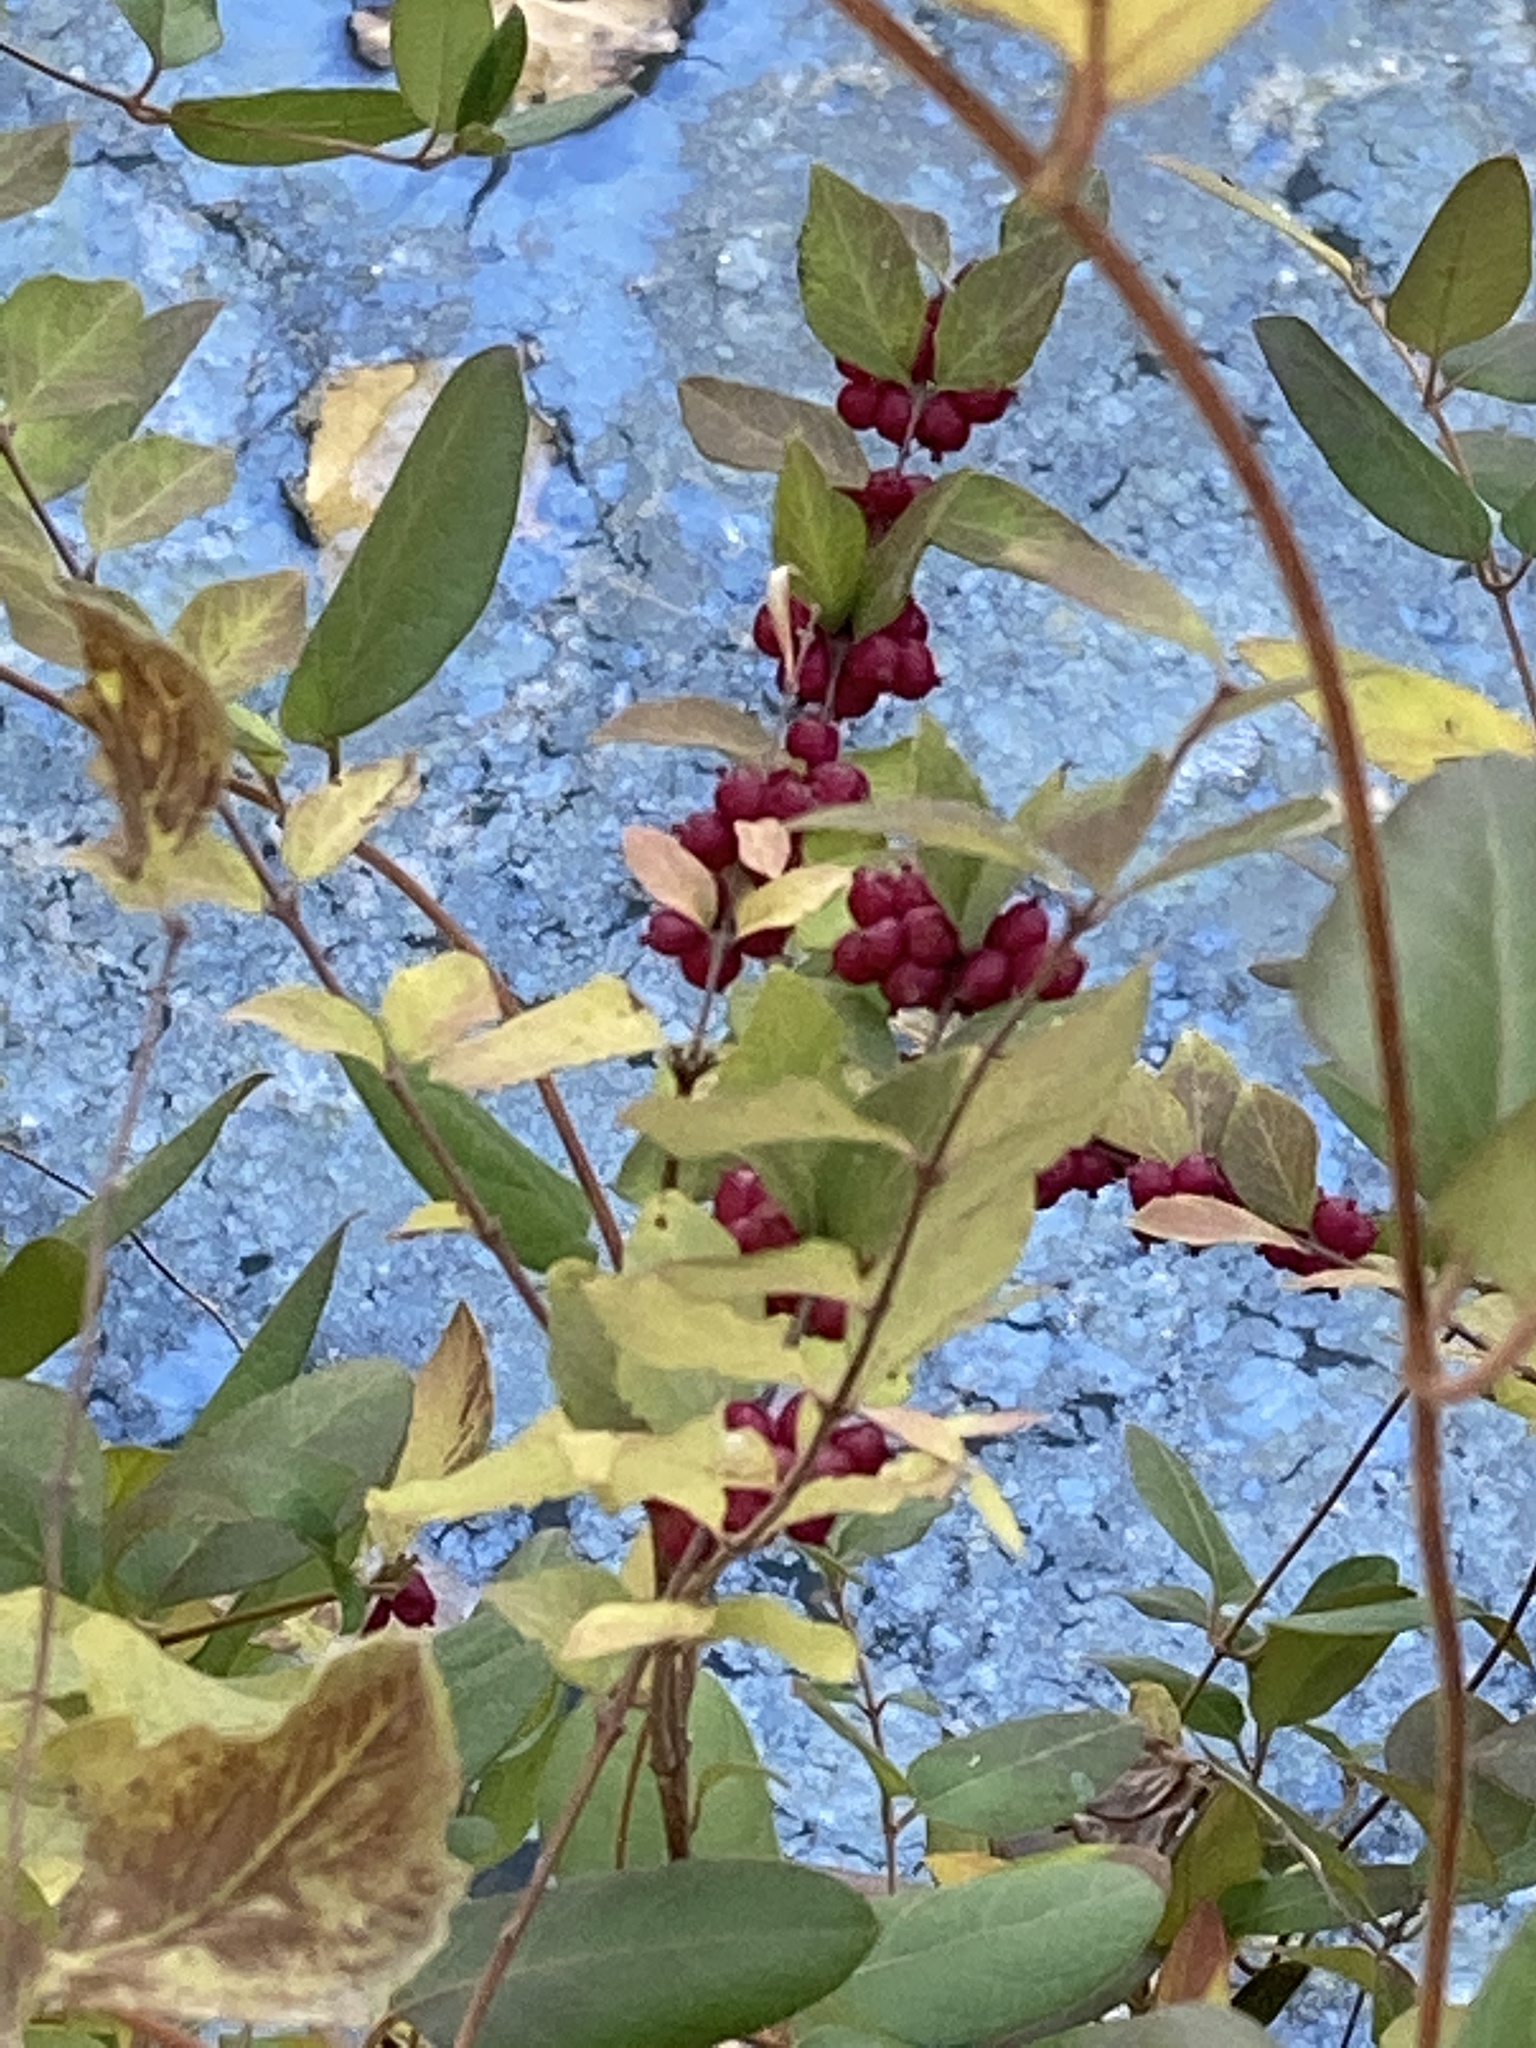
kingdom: Plantae
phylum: Tracheophyta
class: Magnoliopsida
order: Dipsacales
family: Caprifoliaceae
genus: Symphoricarpos
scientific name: Symphoricarpos orbiculatus
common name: Coralberry
